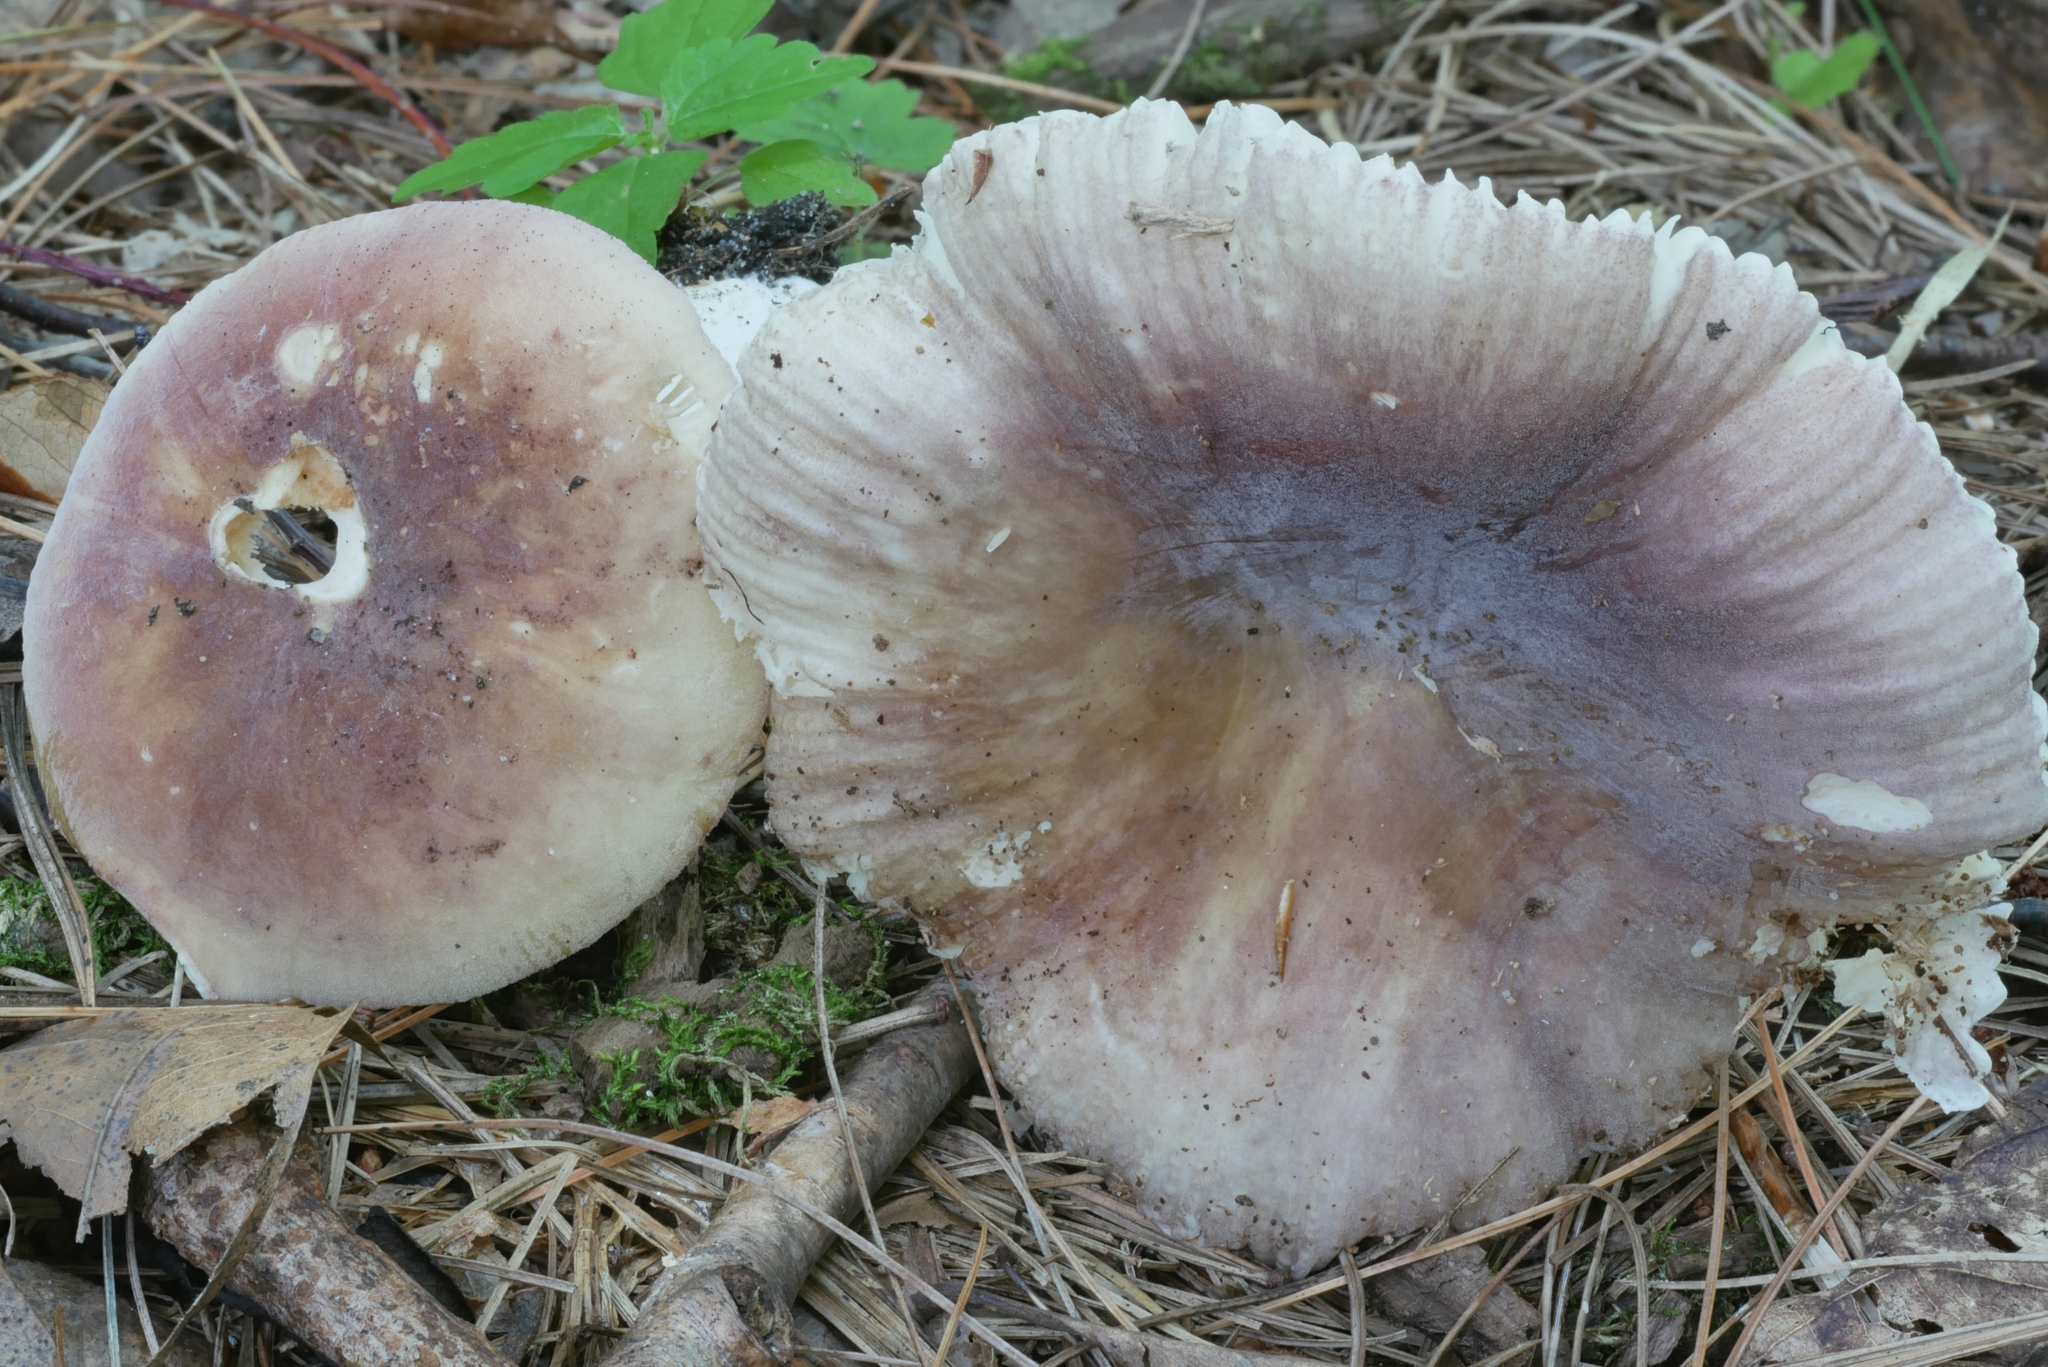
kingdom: Fungi
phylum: Basidiomycota
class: Agaricomycetes
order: Russulales
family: Russulaceae
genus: Russula
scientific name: Russula mariae
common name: Purple-bloom russula
